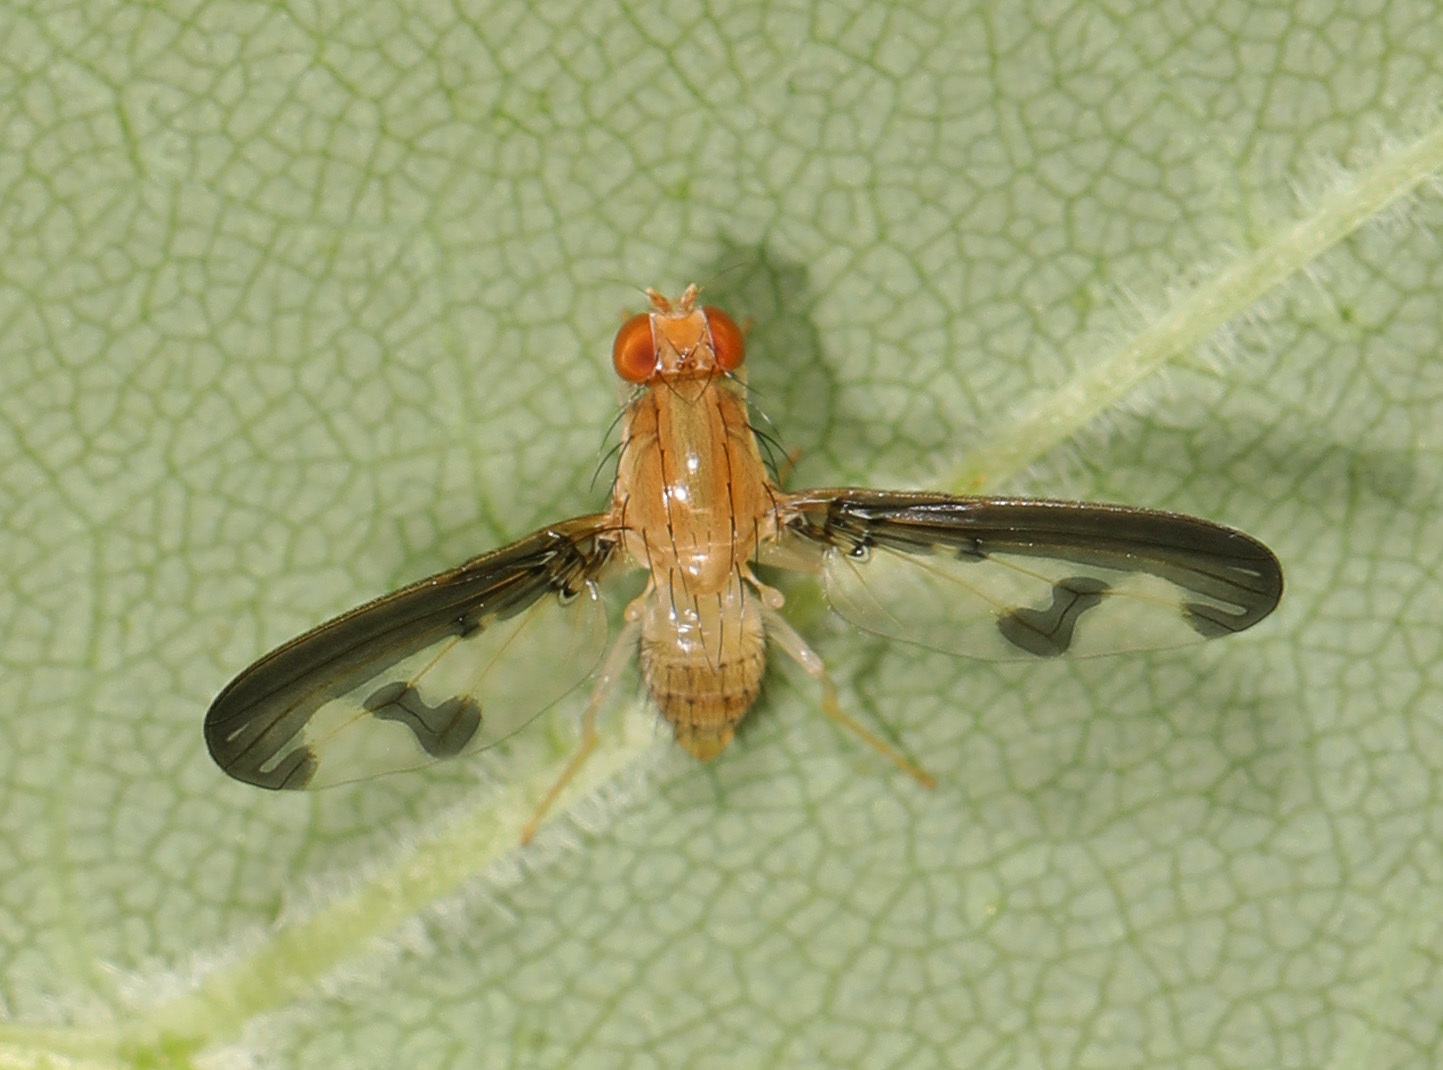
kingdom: Animalia
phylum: Arthropoda
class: Insecta
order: Diptera
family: Pallopteridae
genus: Toxonevra
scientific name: Toxonevra superba
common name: Antlered flutter fly
